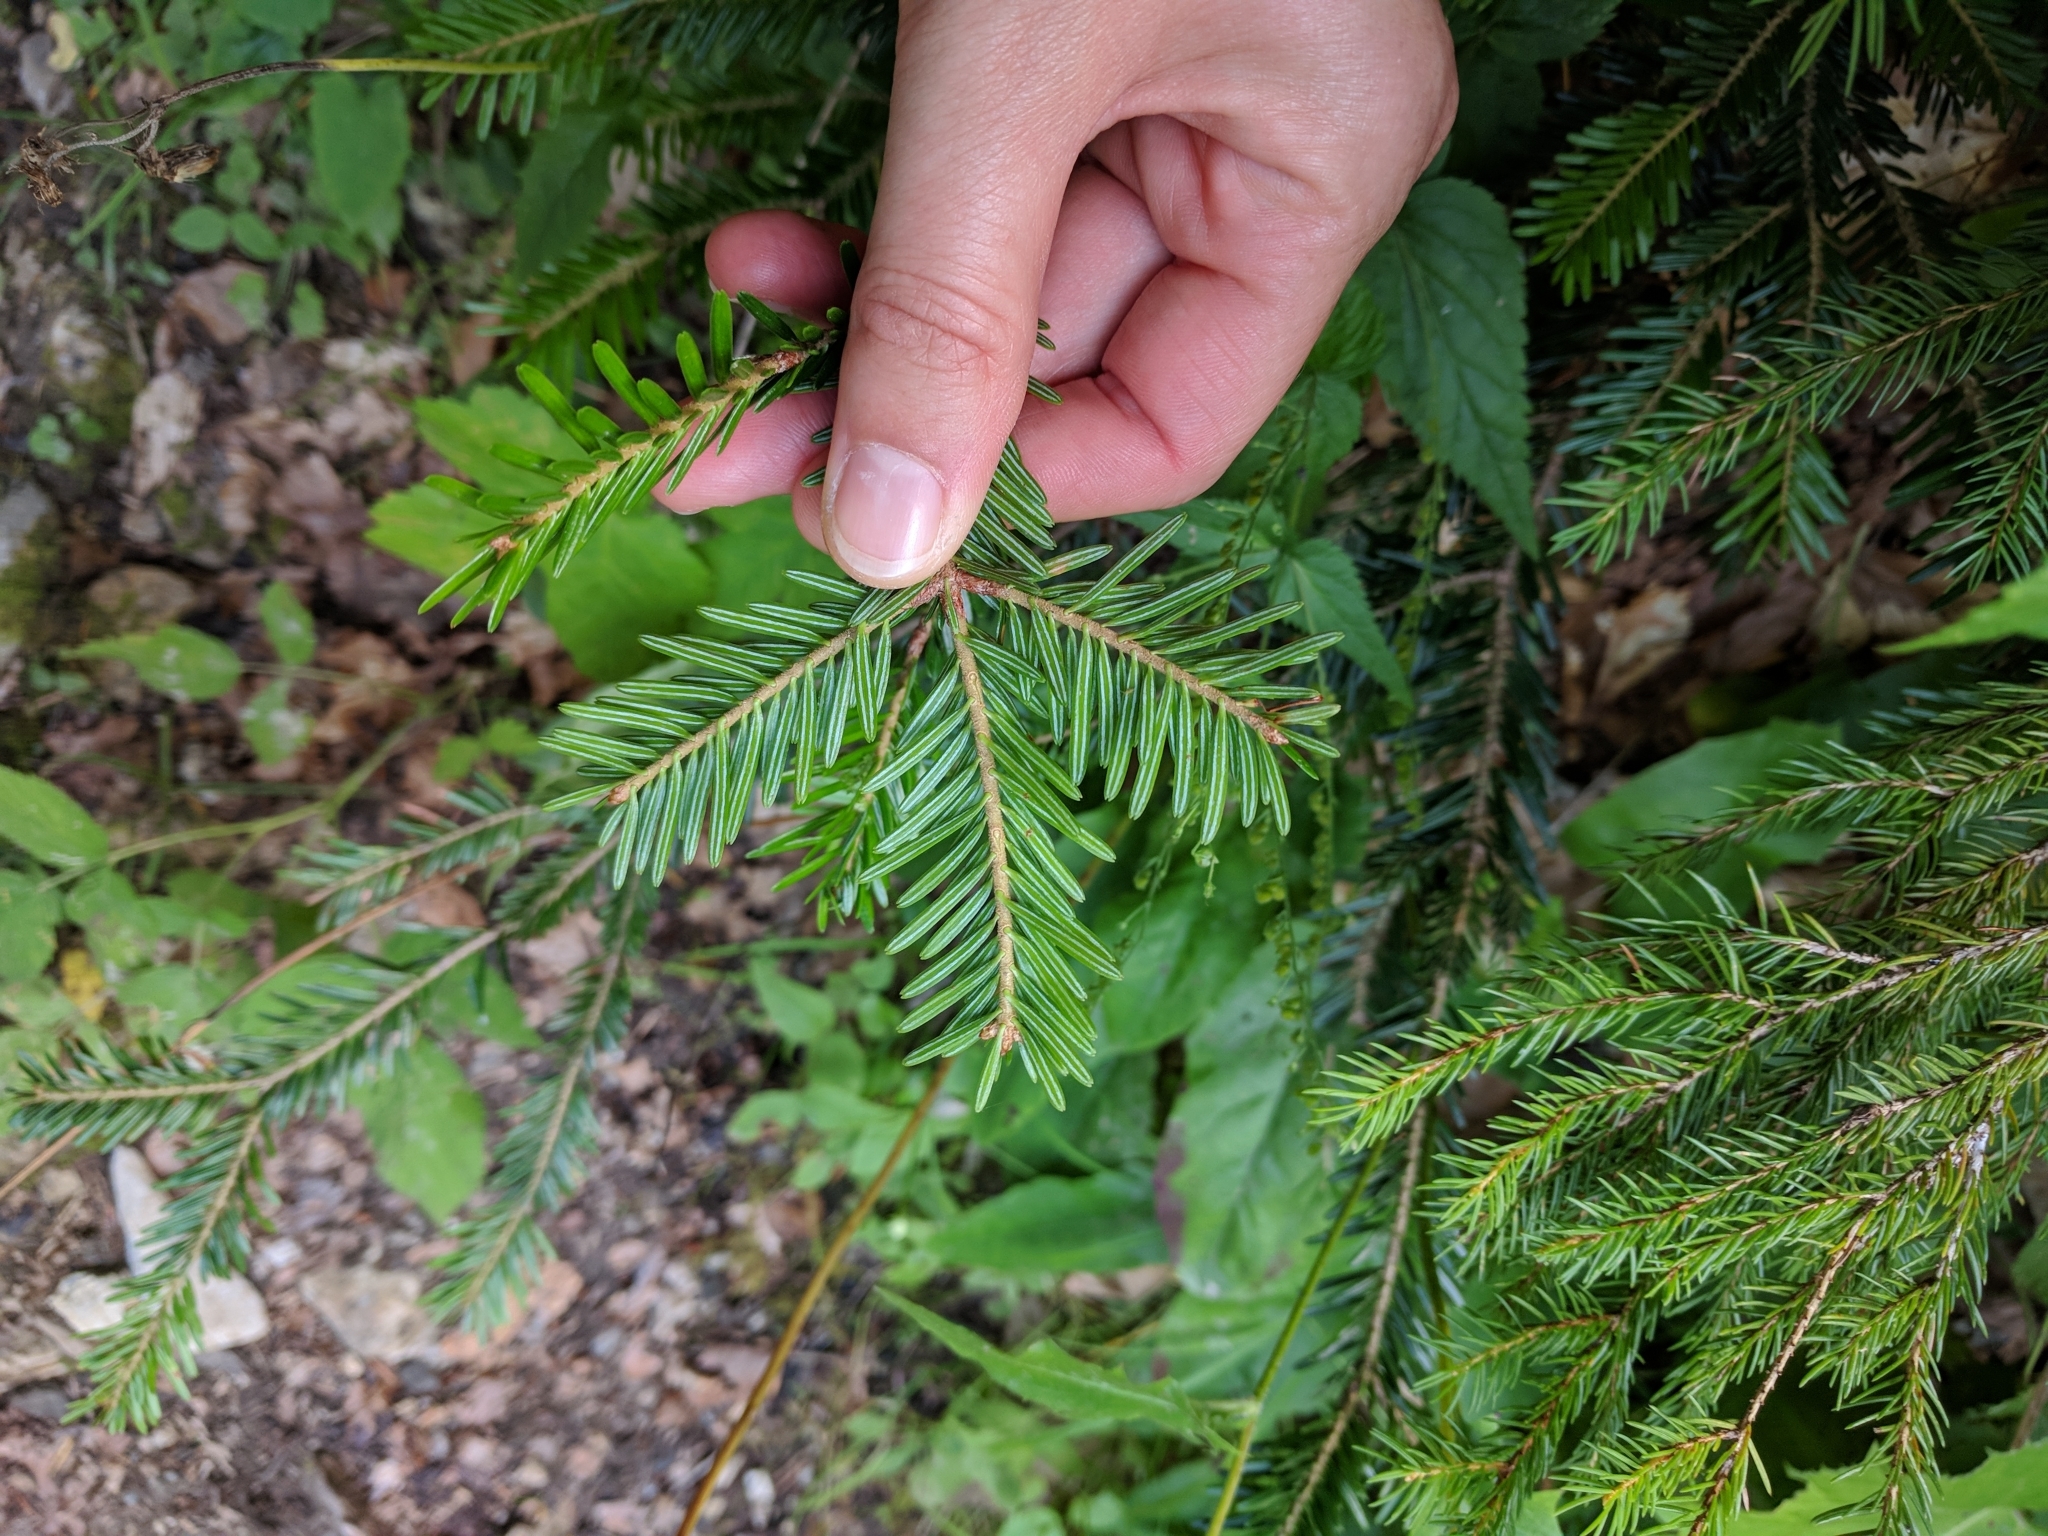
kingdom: Plantae
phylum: Tracheophyta
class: Pinopsida
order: Pinales
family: Pinaceae
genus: Abies
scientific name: Abies alba
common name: Silver fir
